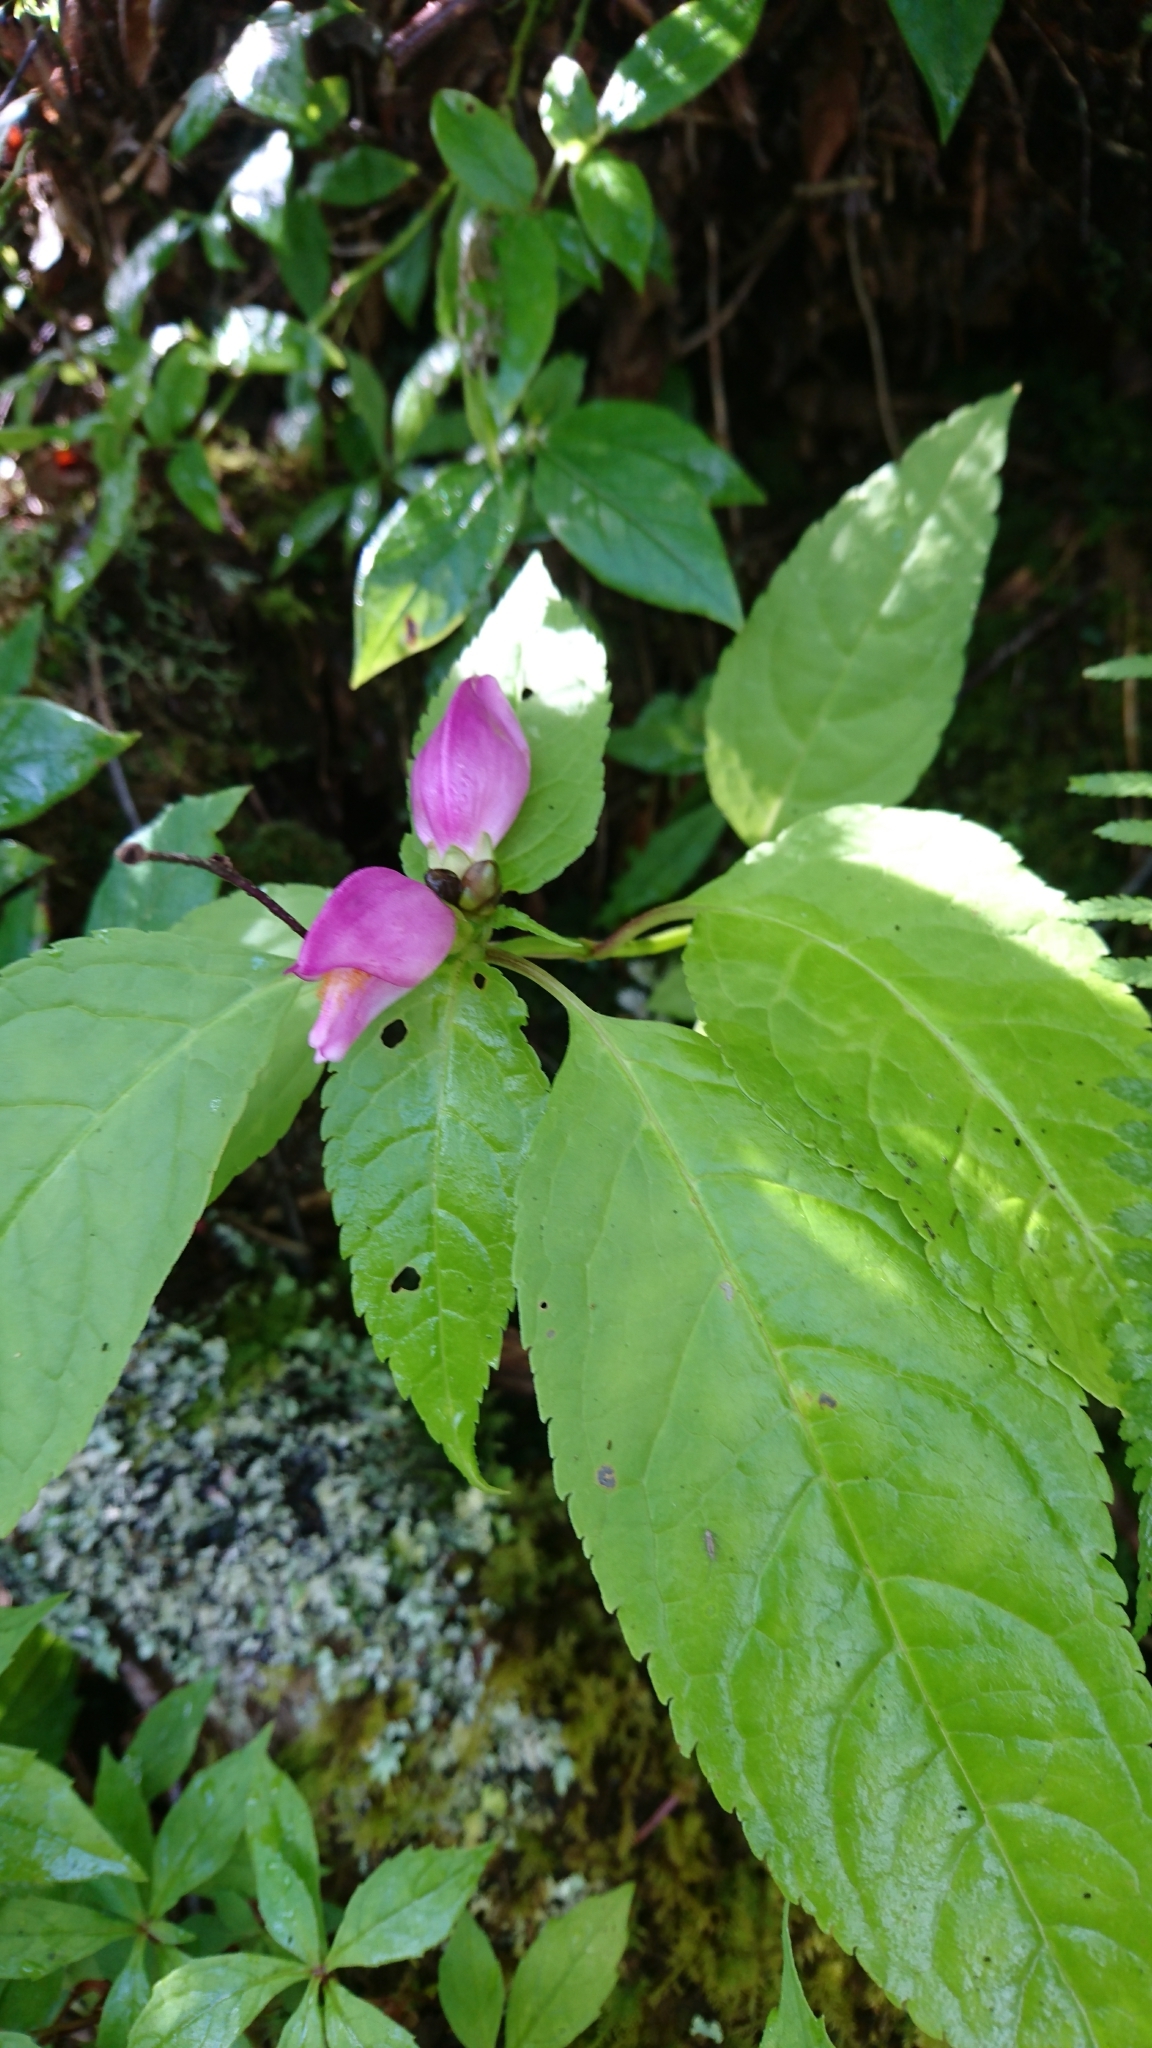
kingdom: Plantae
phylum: Tracheophyta
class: Magnoliopsida
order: Lamiales
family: Plantaginaceae
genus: Chelone
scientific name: Chelone lyonii
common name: Pink turtlehead
